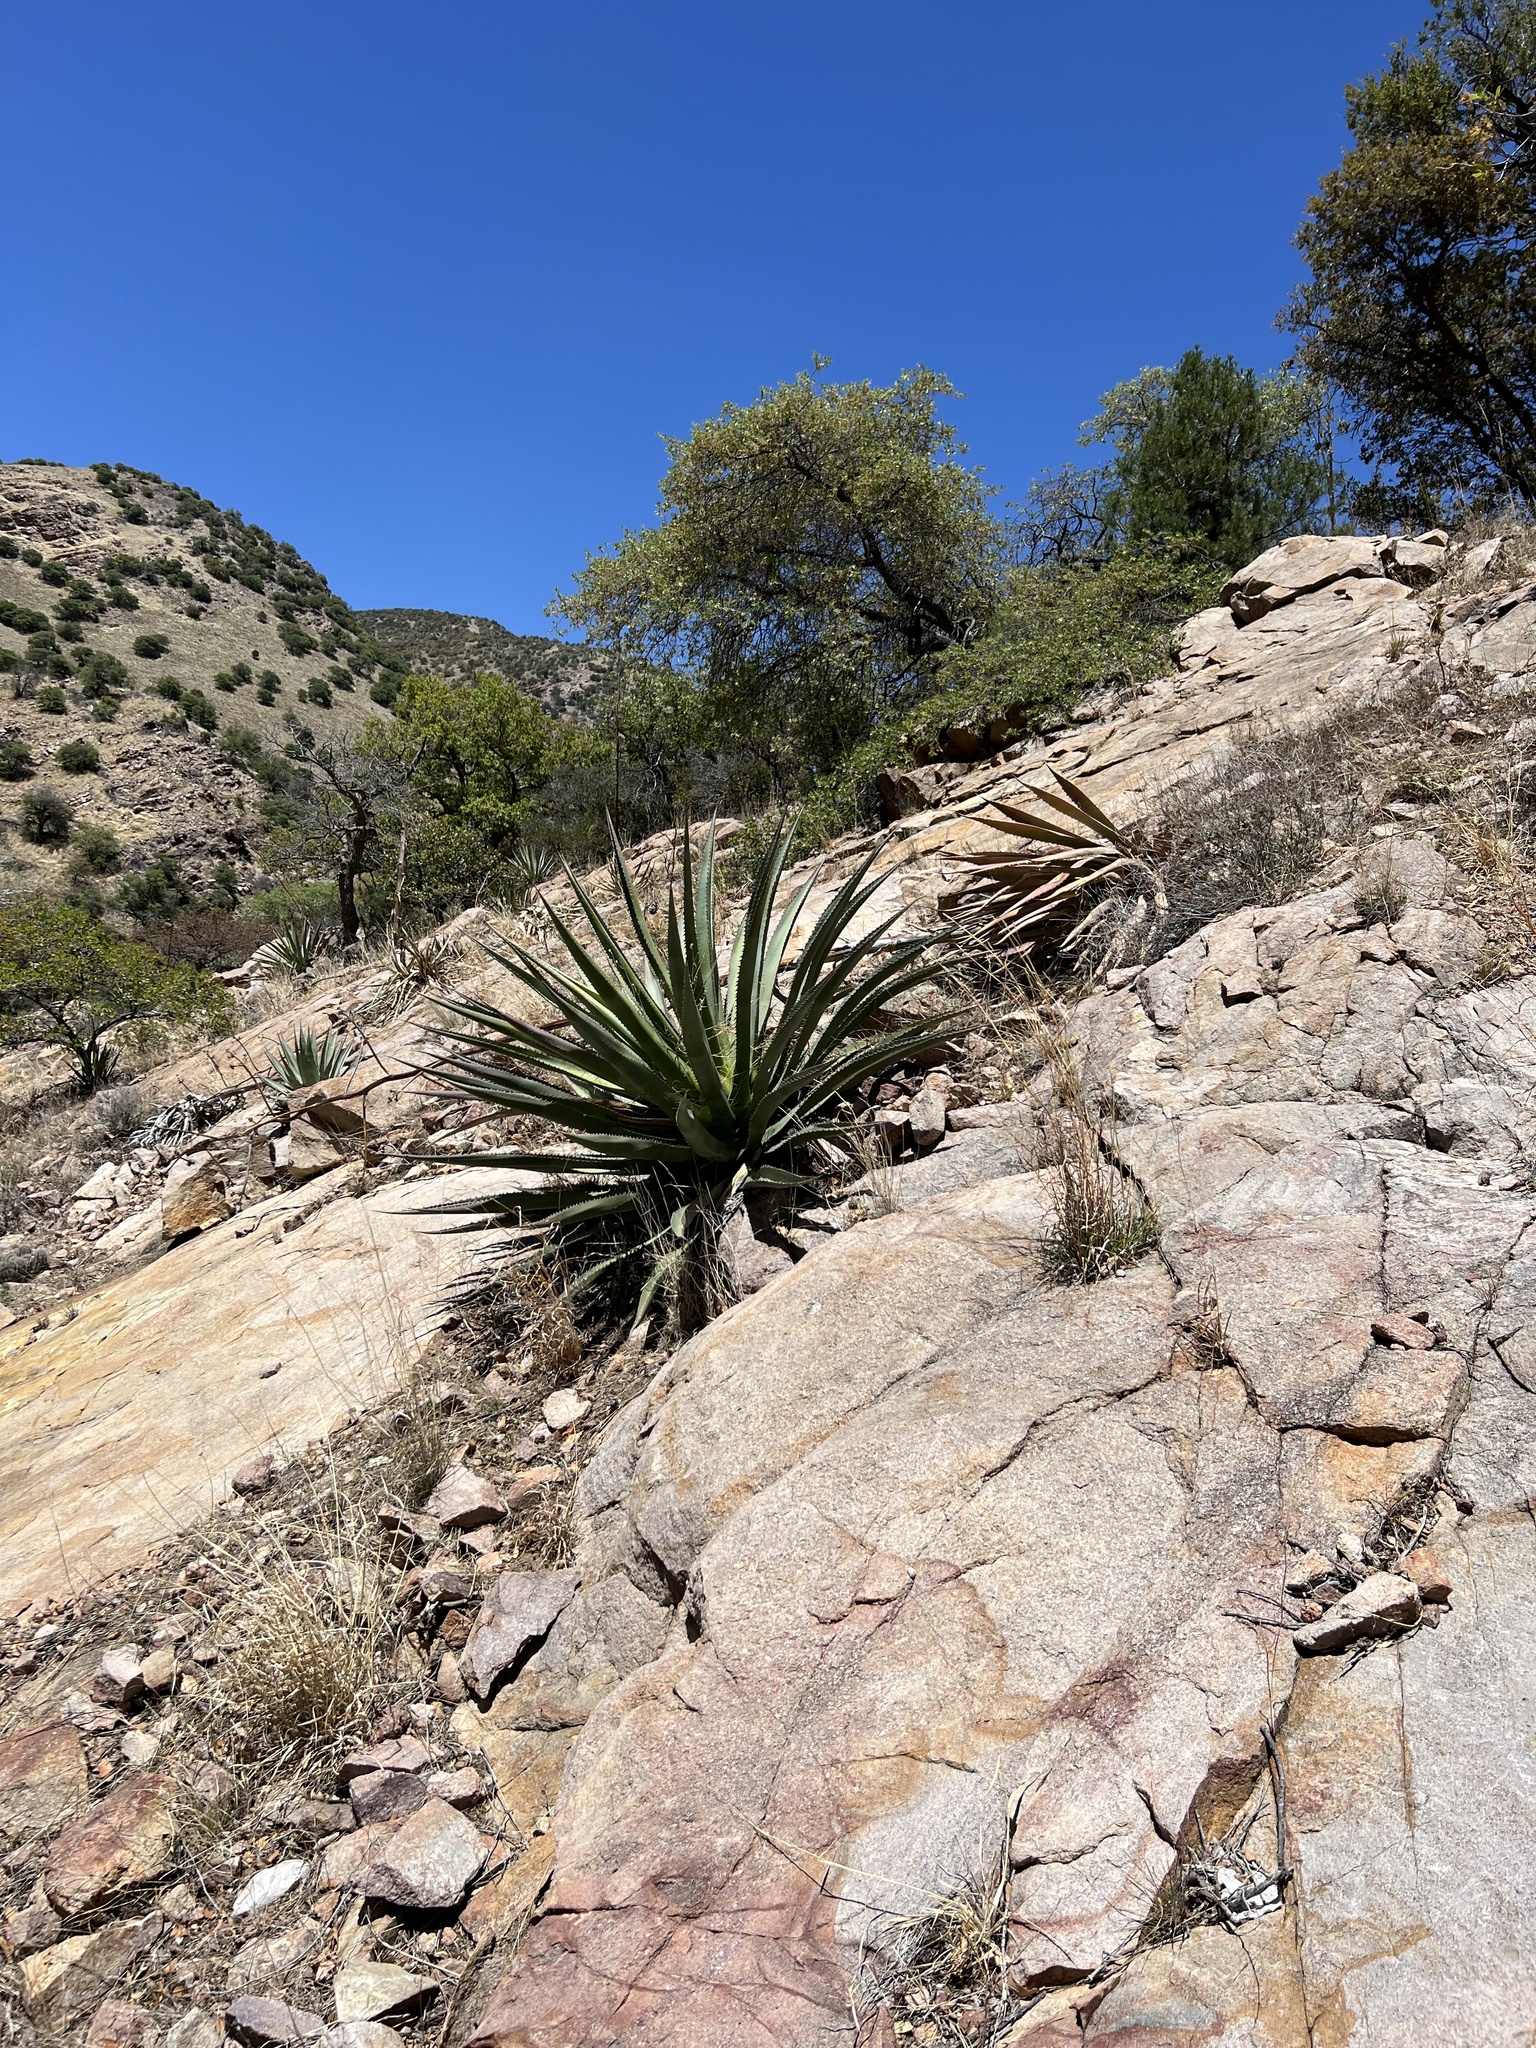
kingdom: Plantae
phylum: Tracheophyta
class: Liliopsida
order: Asparagales
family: Asparagaceae
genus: Agave
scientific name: Agave palmeri
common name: Palmer agave
